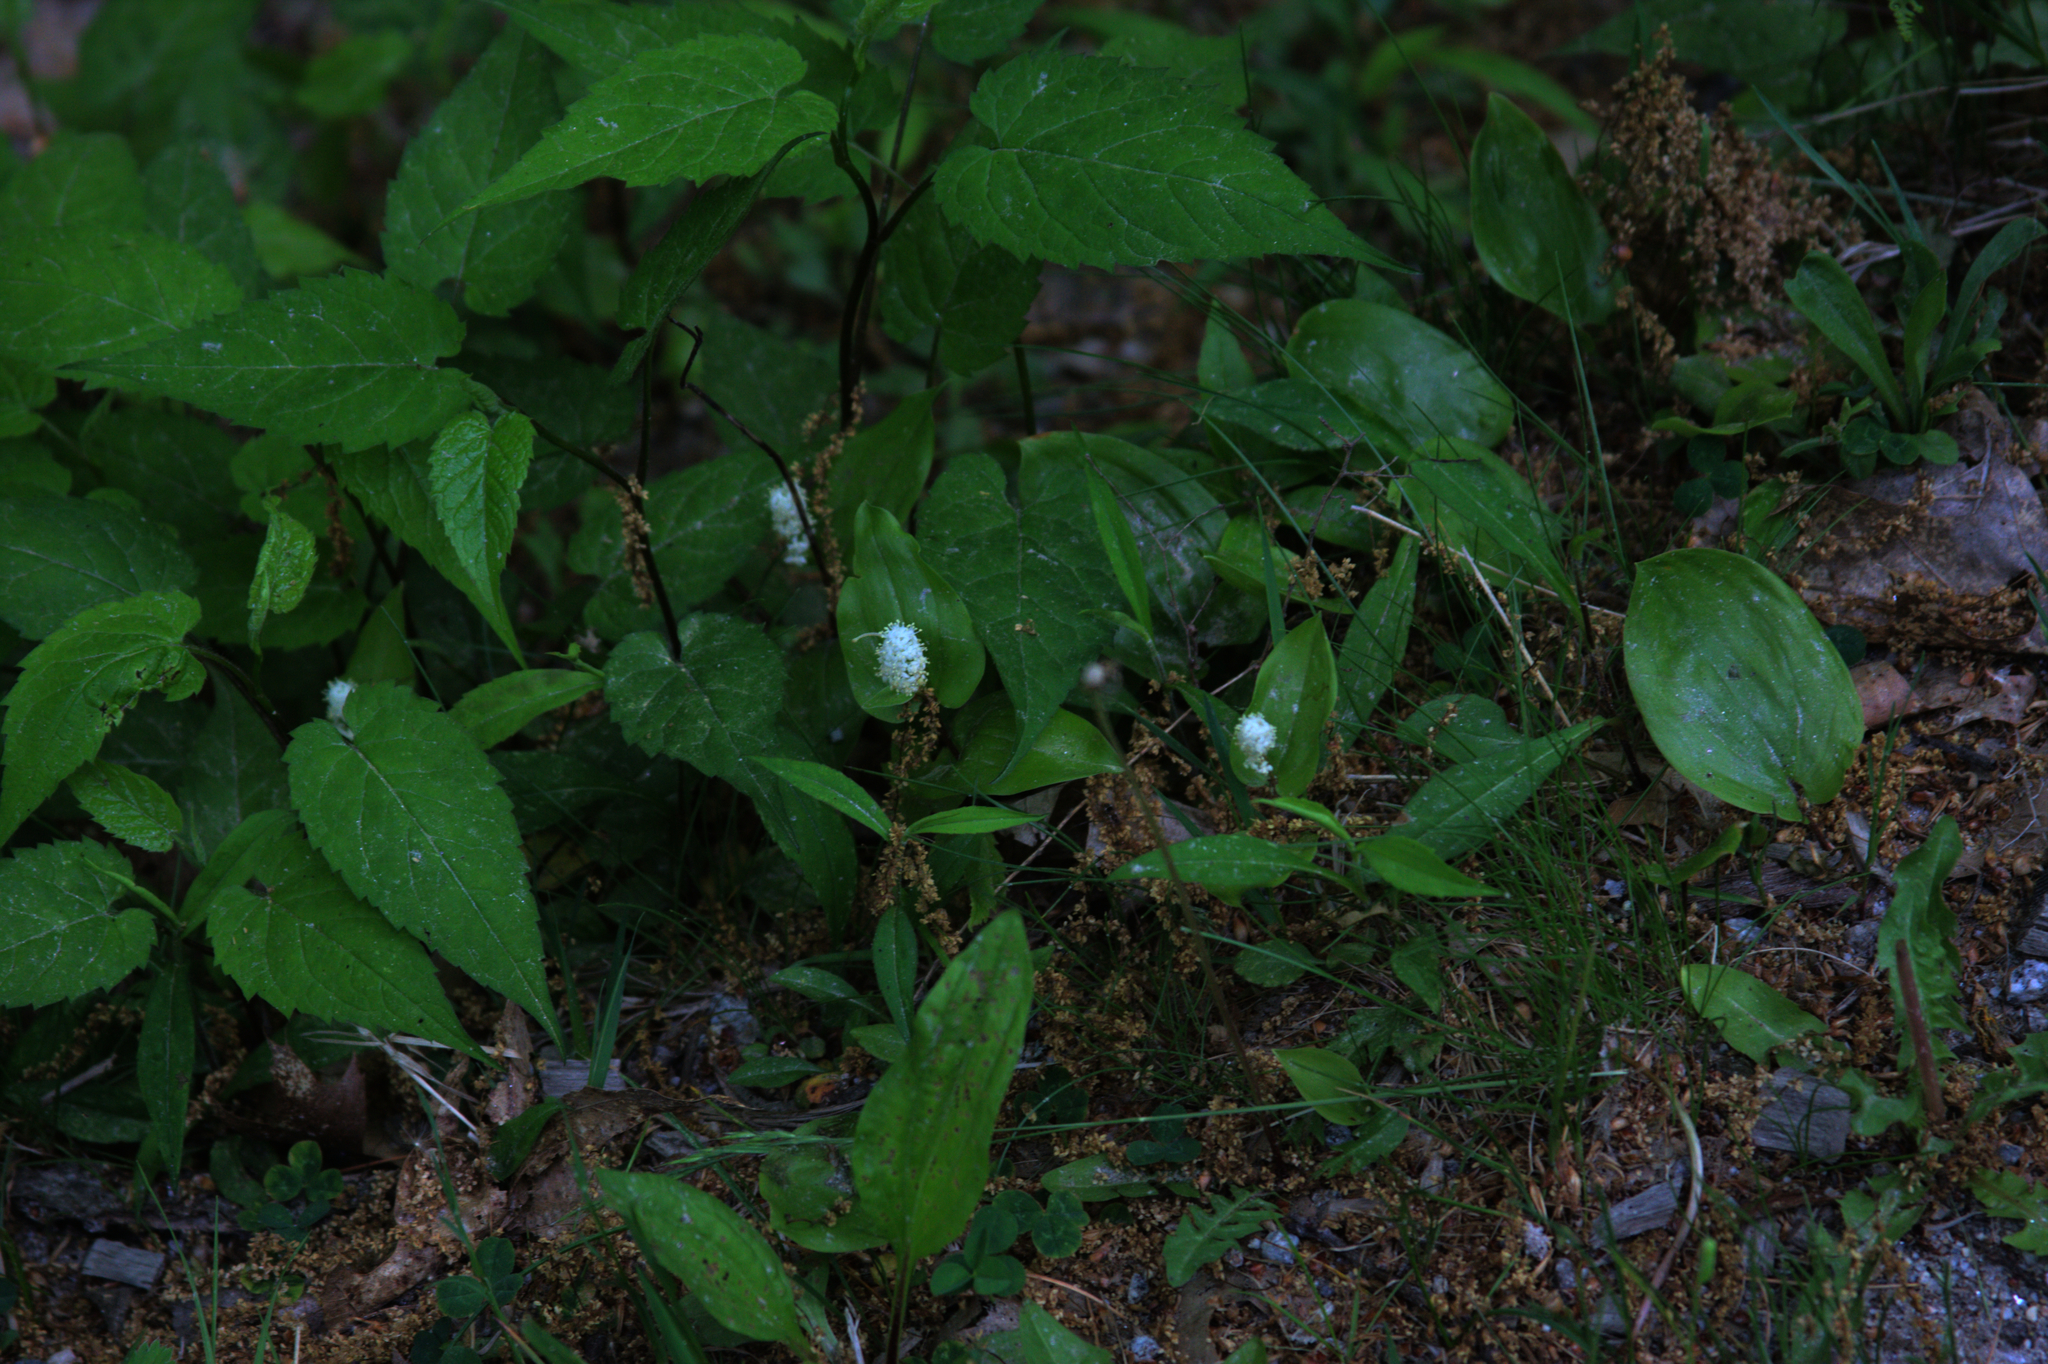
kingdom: Plantae
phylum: Tracheophyta
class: Liliopsida
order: Asparagales
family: Asparagaceae
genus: Maianthemum
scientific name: Maianthemum canadense
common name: False lily-of-the-valley
